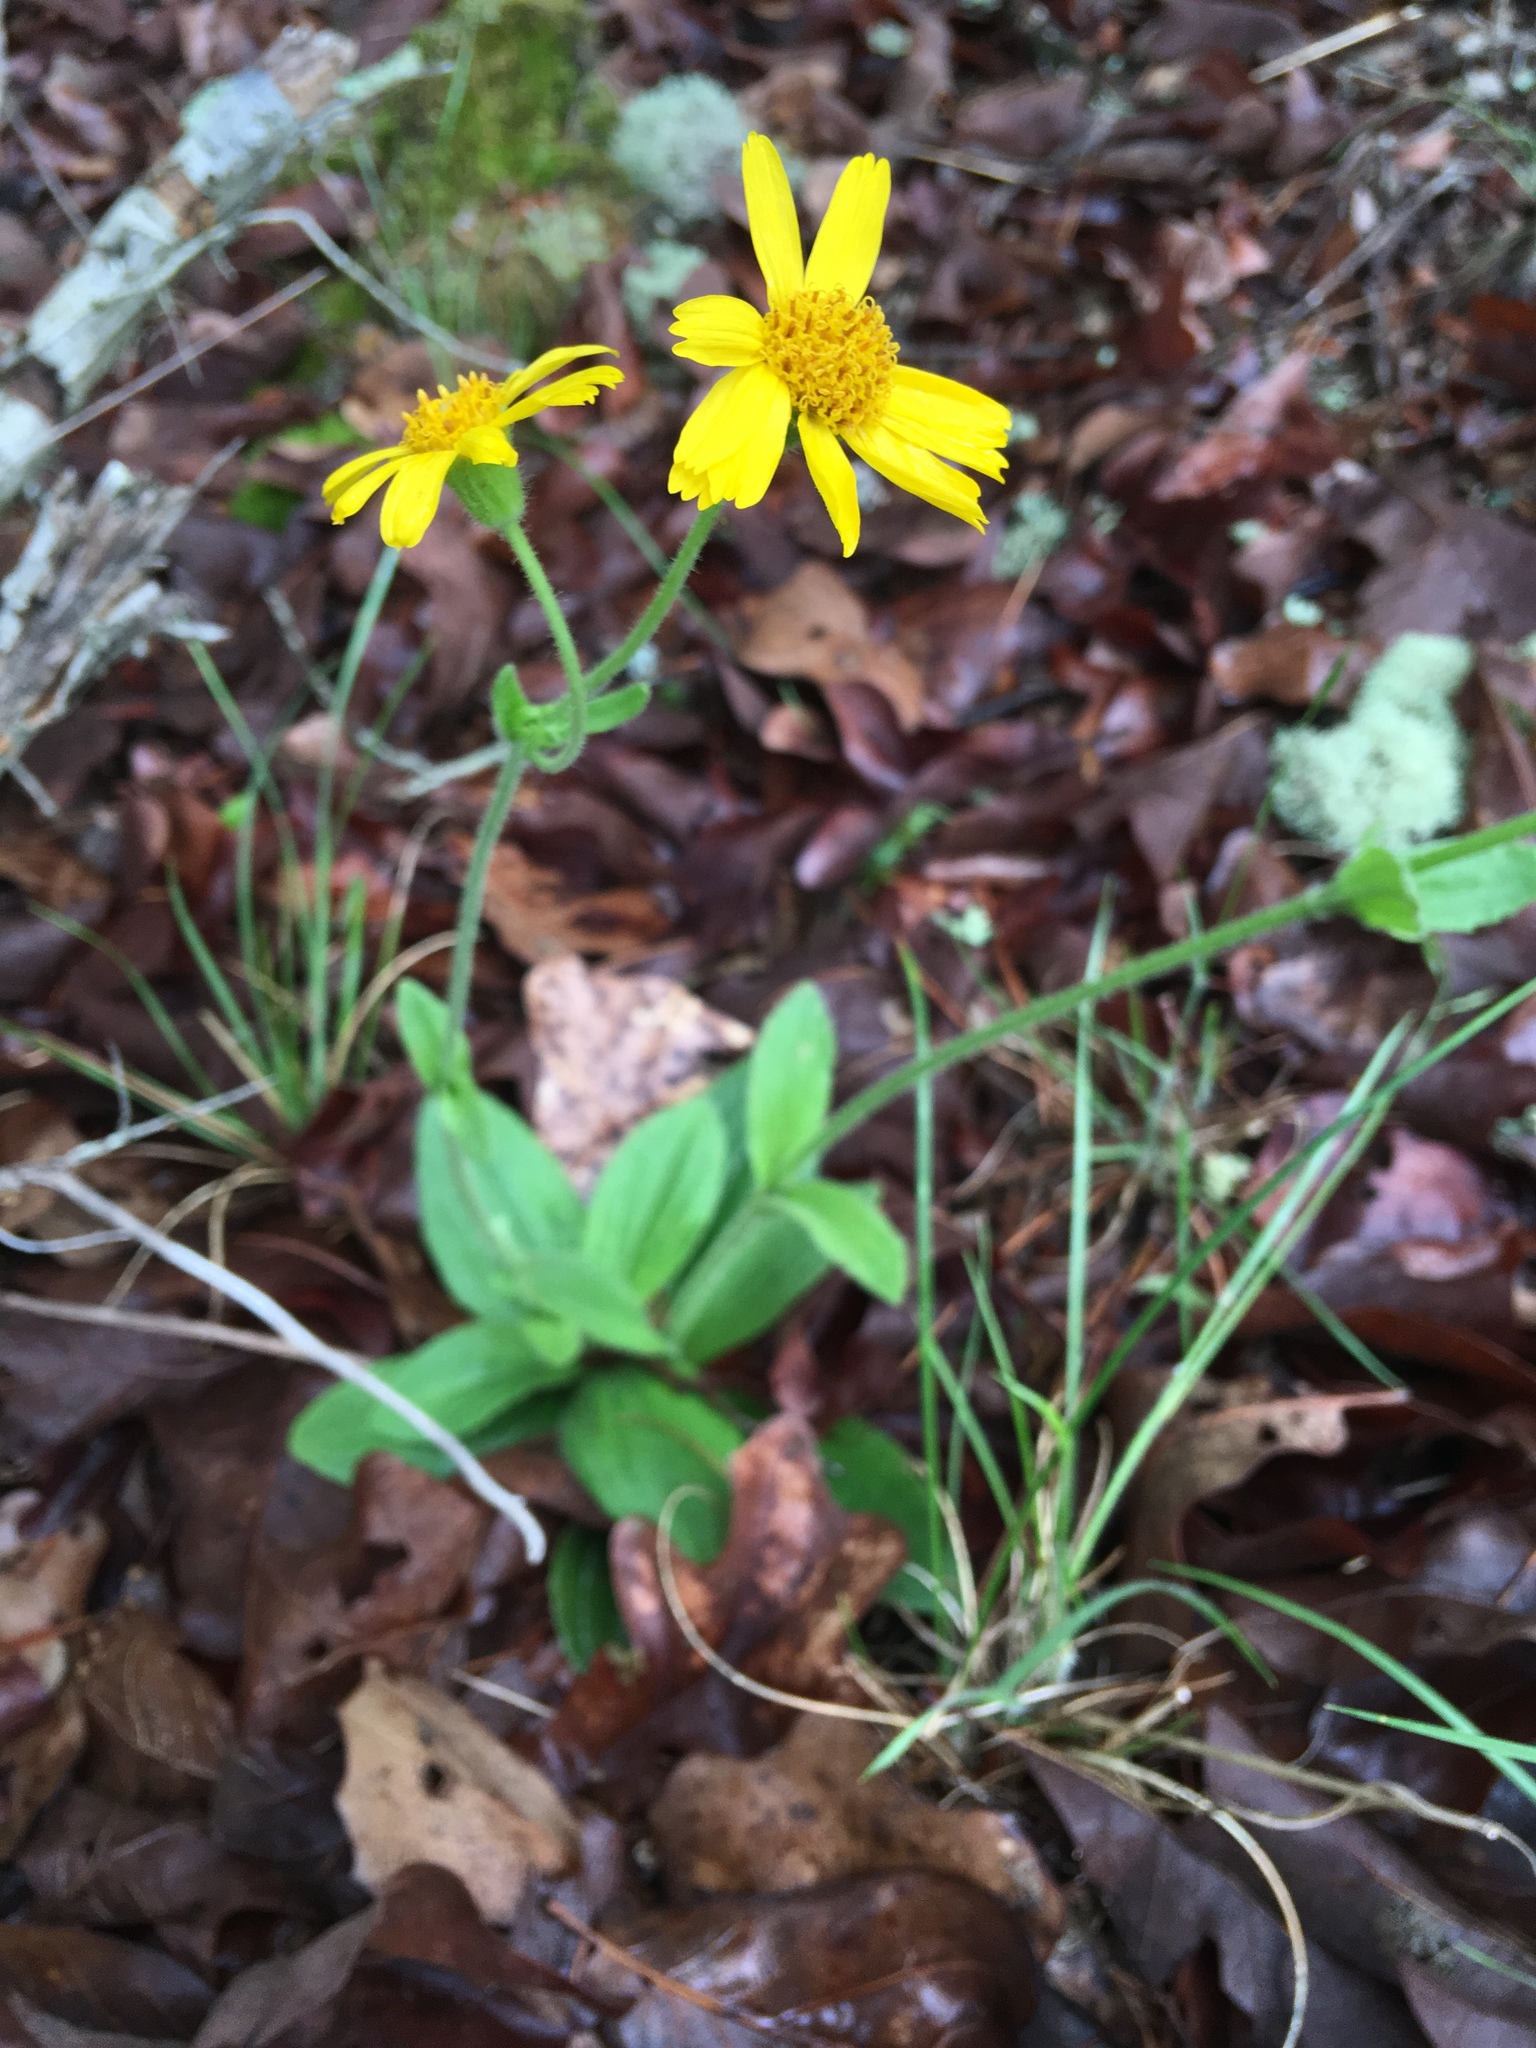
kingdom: Plantae
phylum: Tracheophyta
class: Magnoliopsida
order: Asterales
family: Asteraceae
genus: Arnica
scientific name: Arnica acaulis
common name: Common leopardbane
